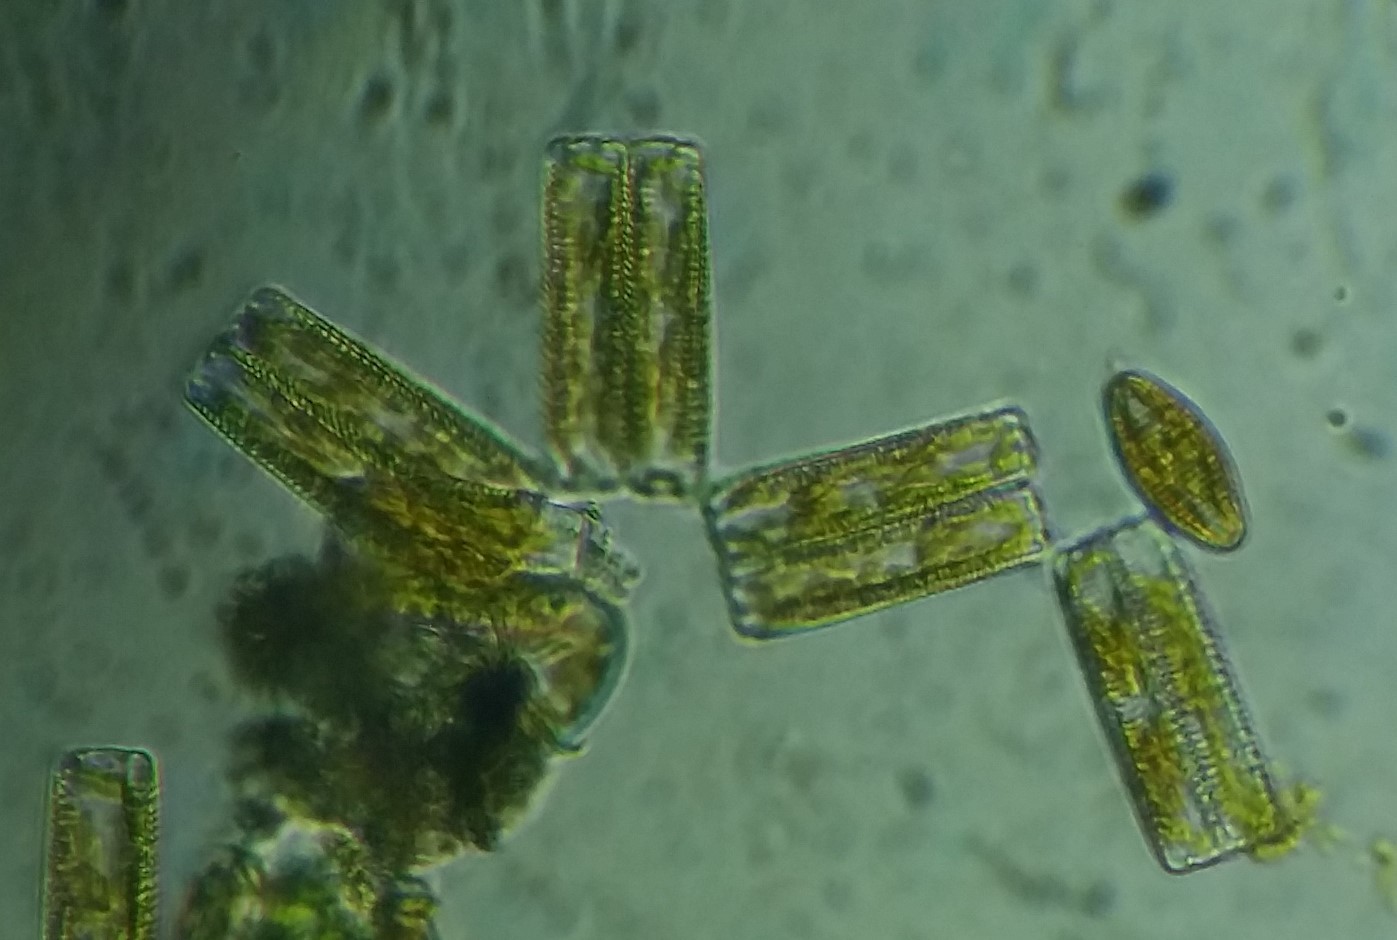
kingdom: Chromista
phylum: Ochrophyta
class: Bacillariophyceae
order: Fragilariales
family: Fragilariaceae
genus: Diatoma
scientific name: Diatoma vulgaris
